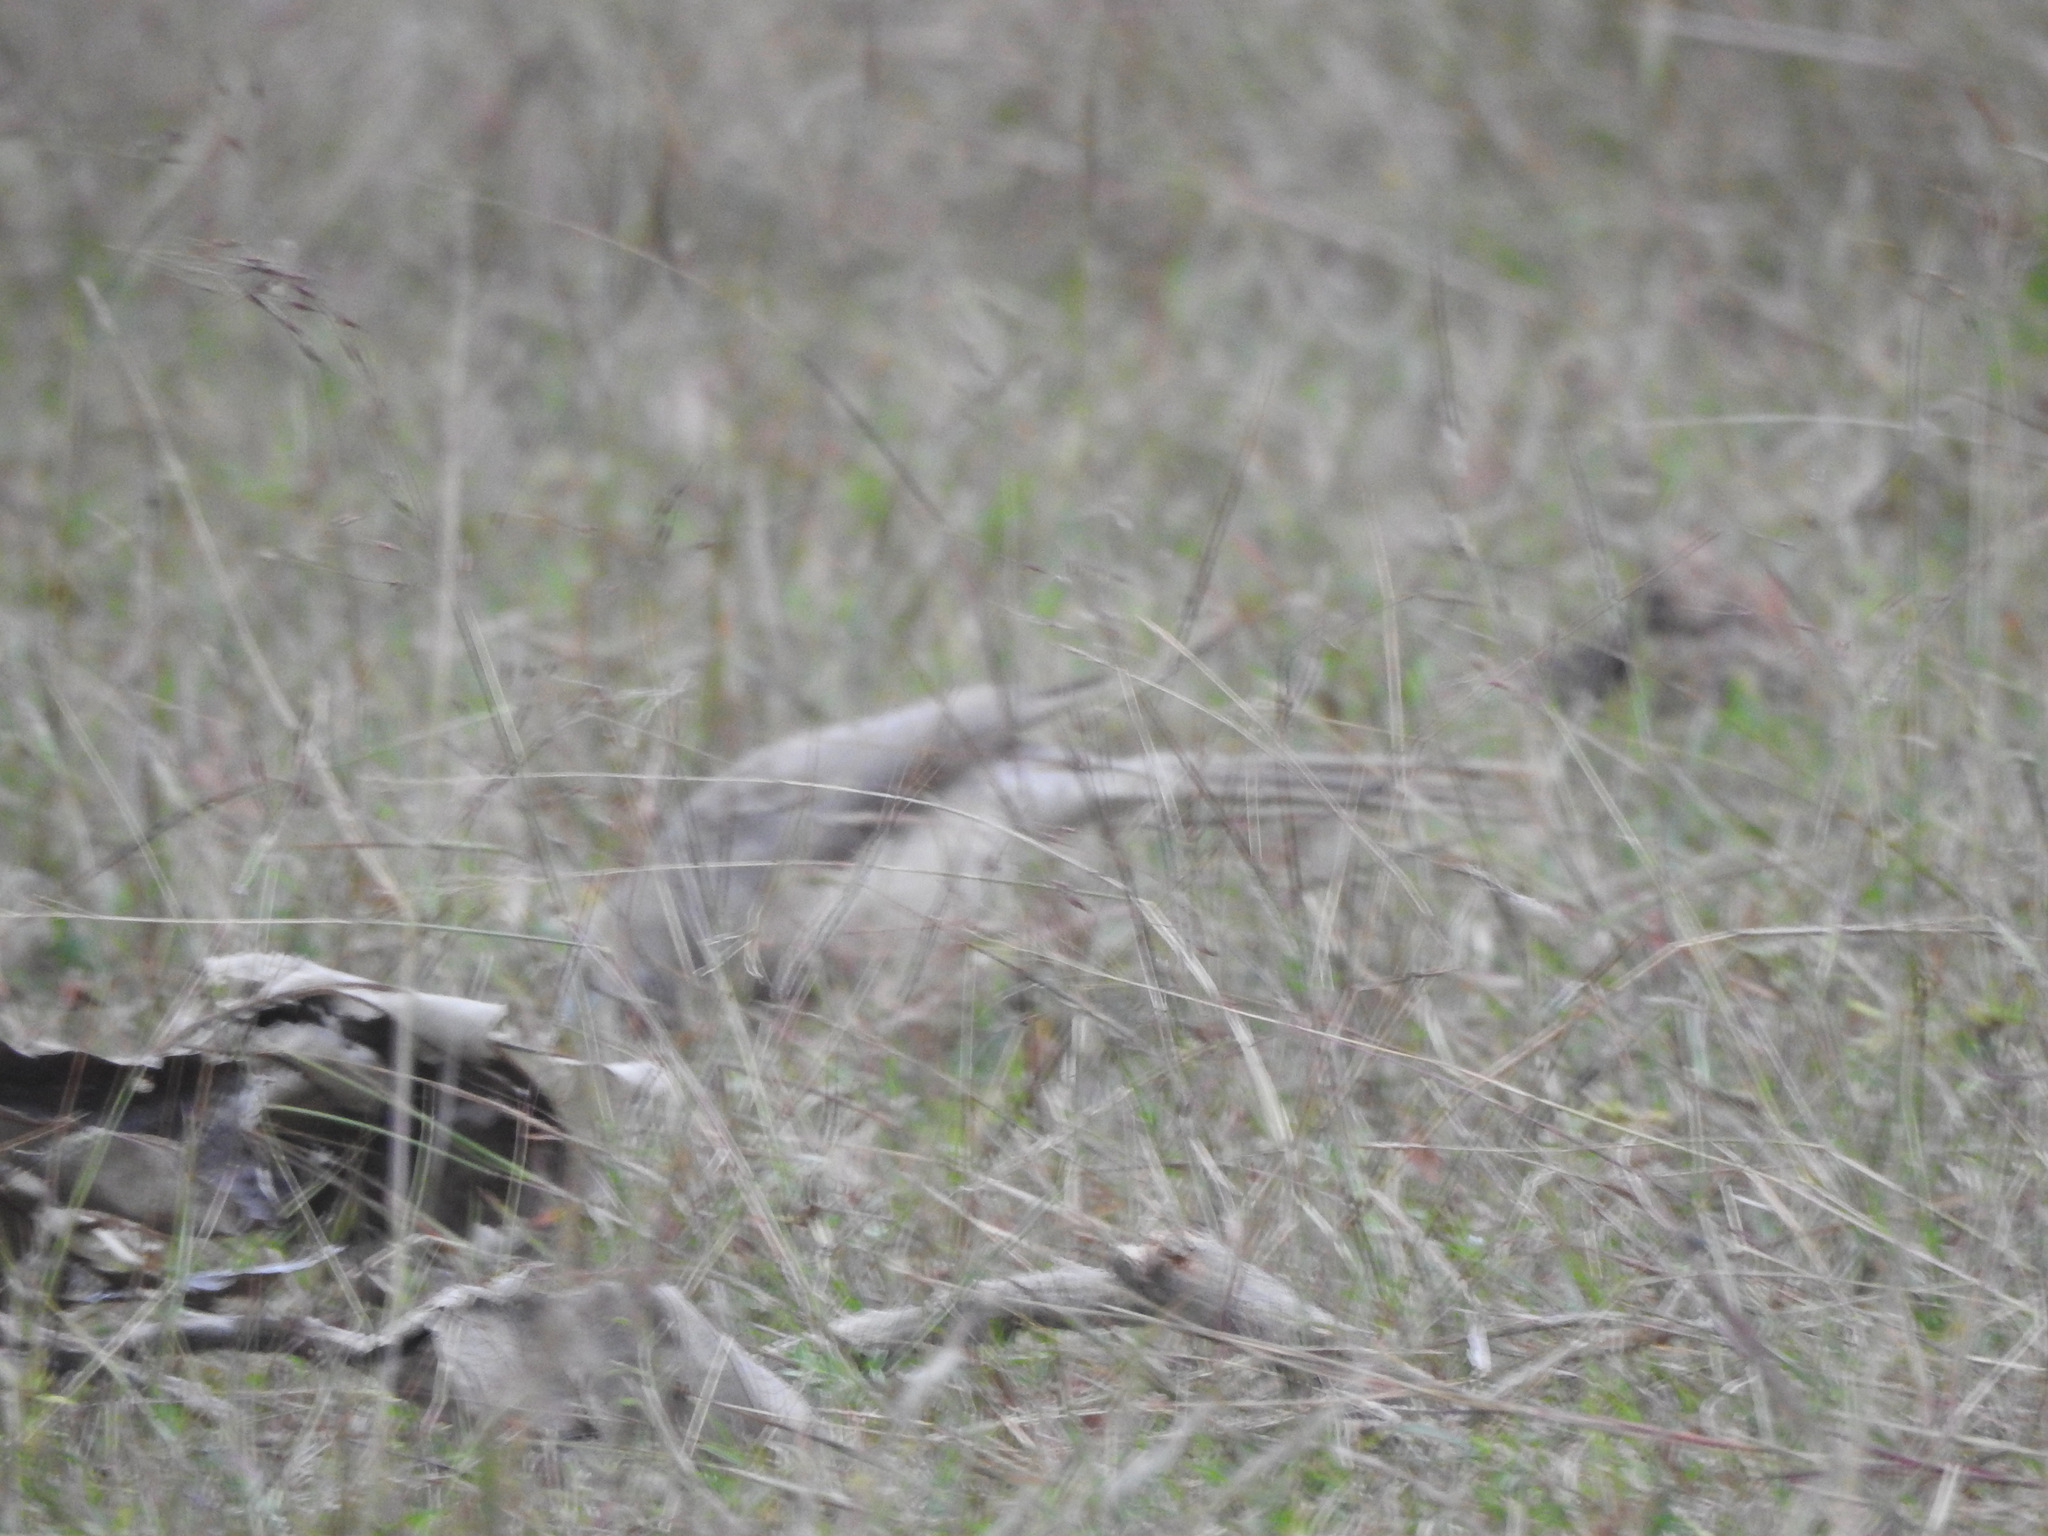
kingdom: Animalia
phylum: Chordata
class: Aves
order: Passeriformes
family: Leiothrichidae
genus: Turdoides
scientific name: Turdoides malcolmi
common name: Large grey babbler
